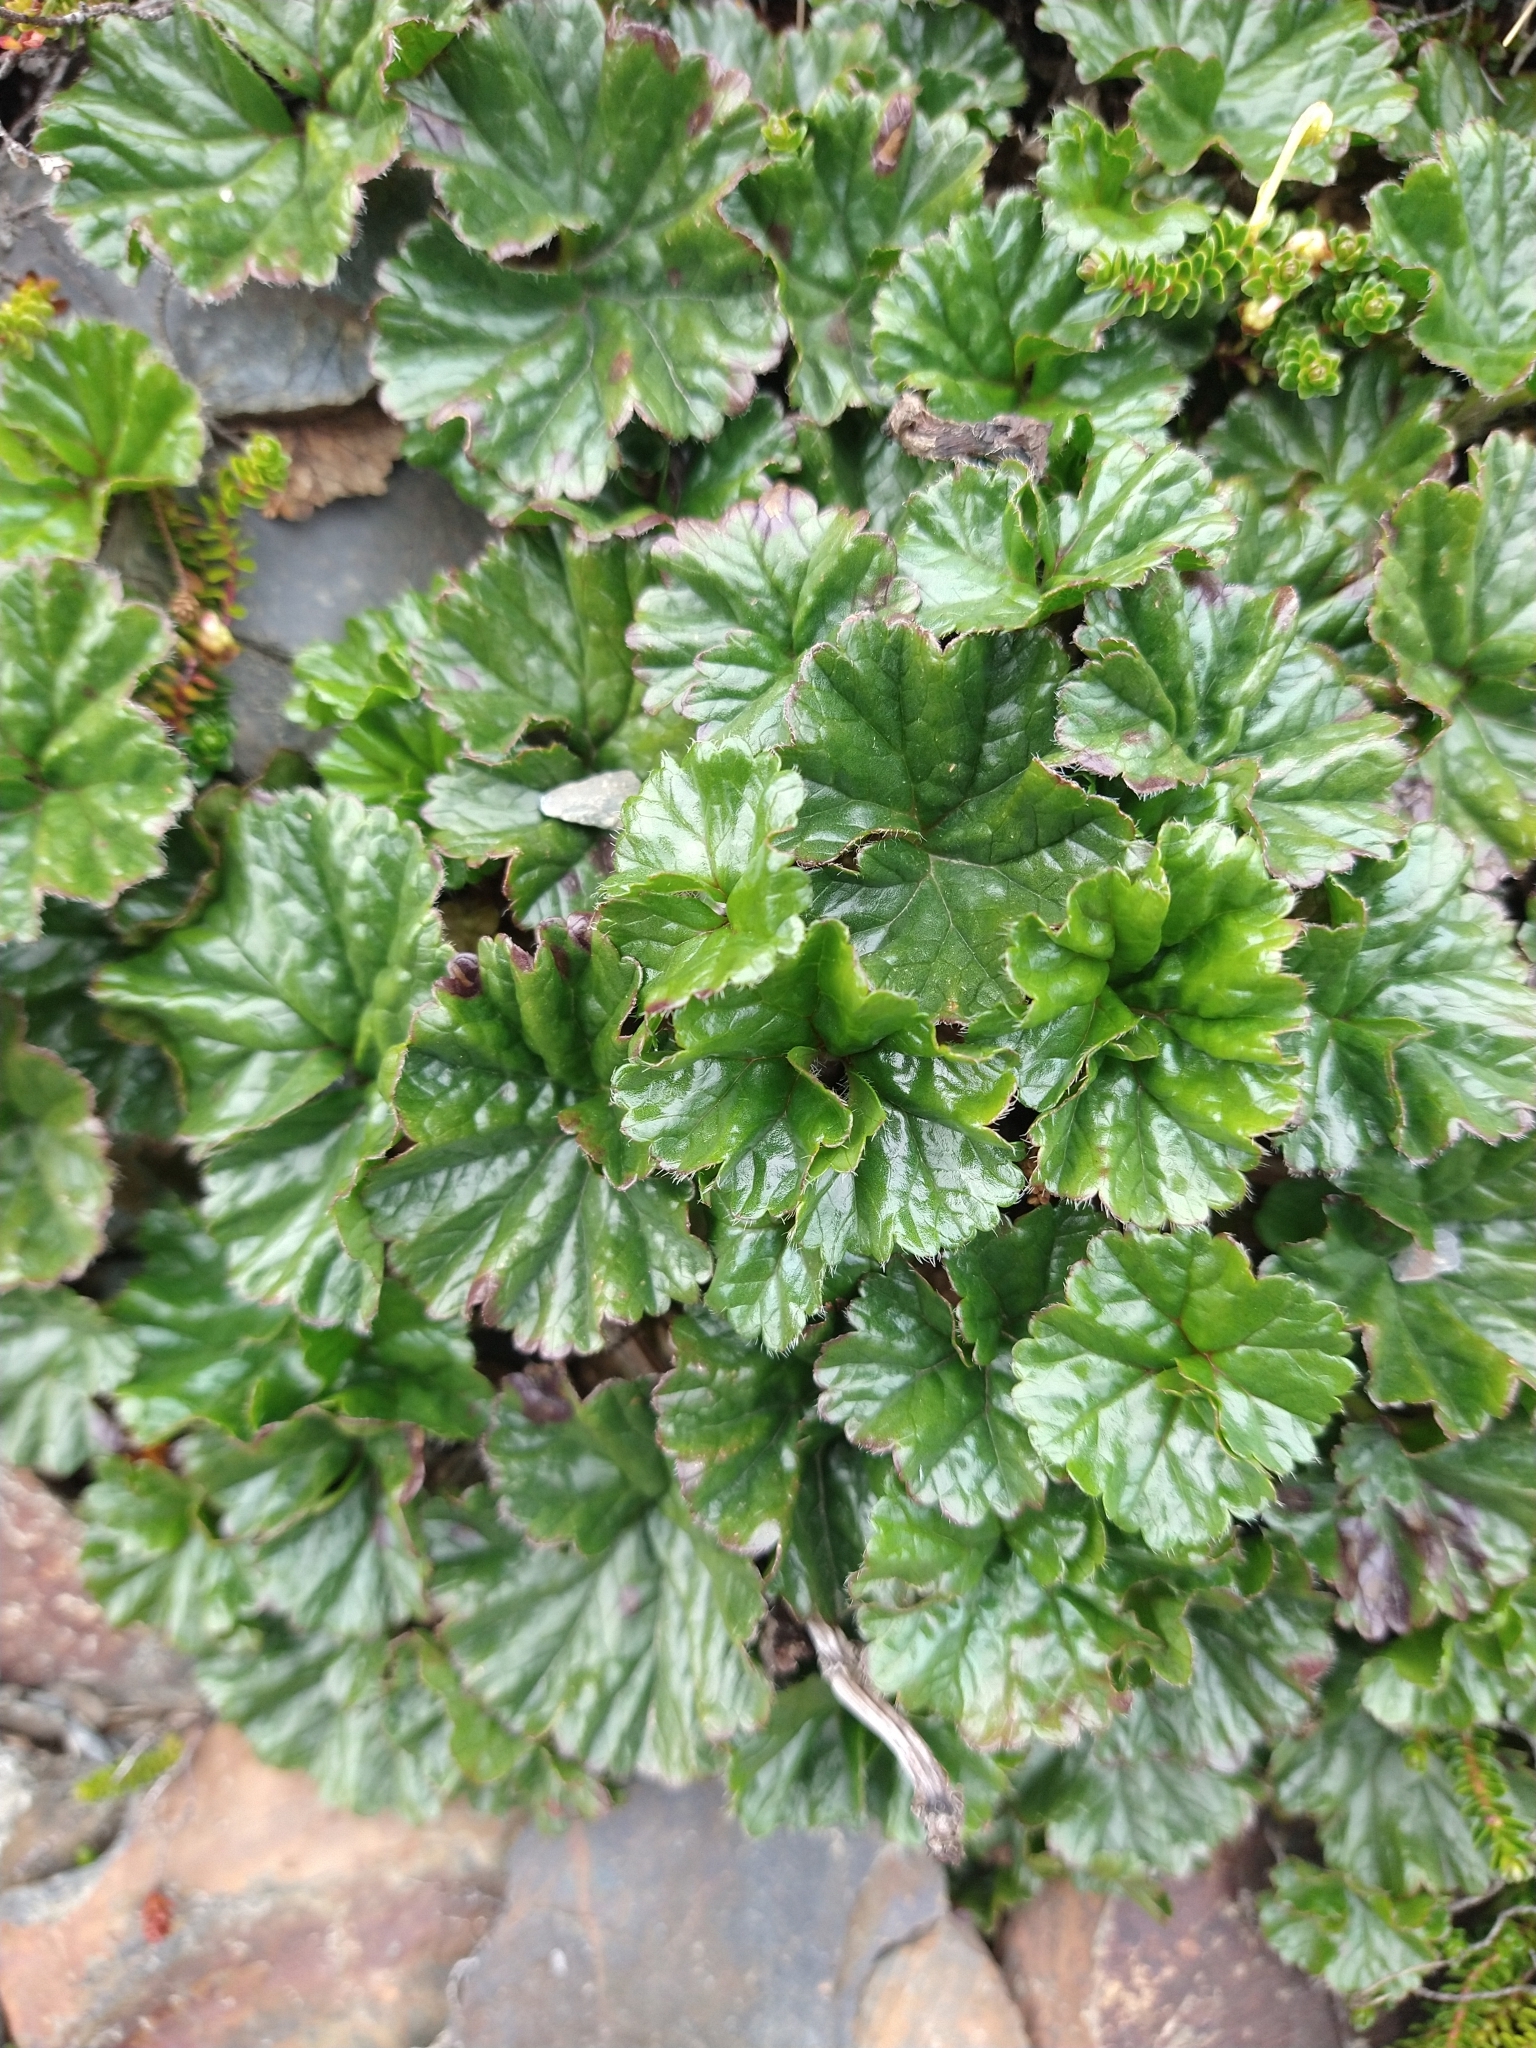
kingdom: Plantae
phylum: Tracheophyta
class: Magnoliopsida
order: Gunnerales
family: Gunneraceae
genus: Gunnera
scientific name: Gunnera magellanica
